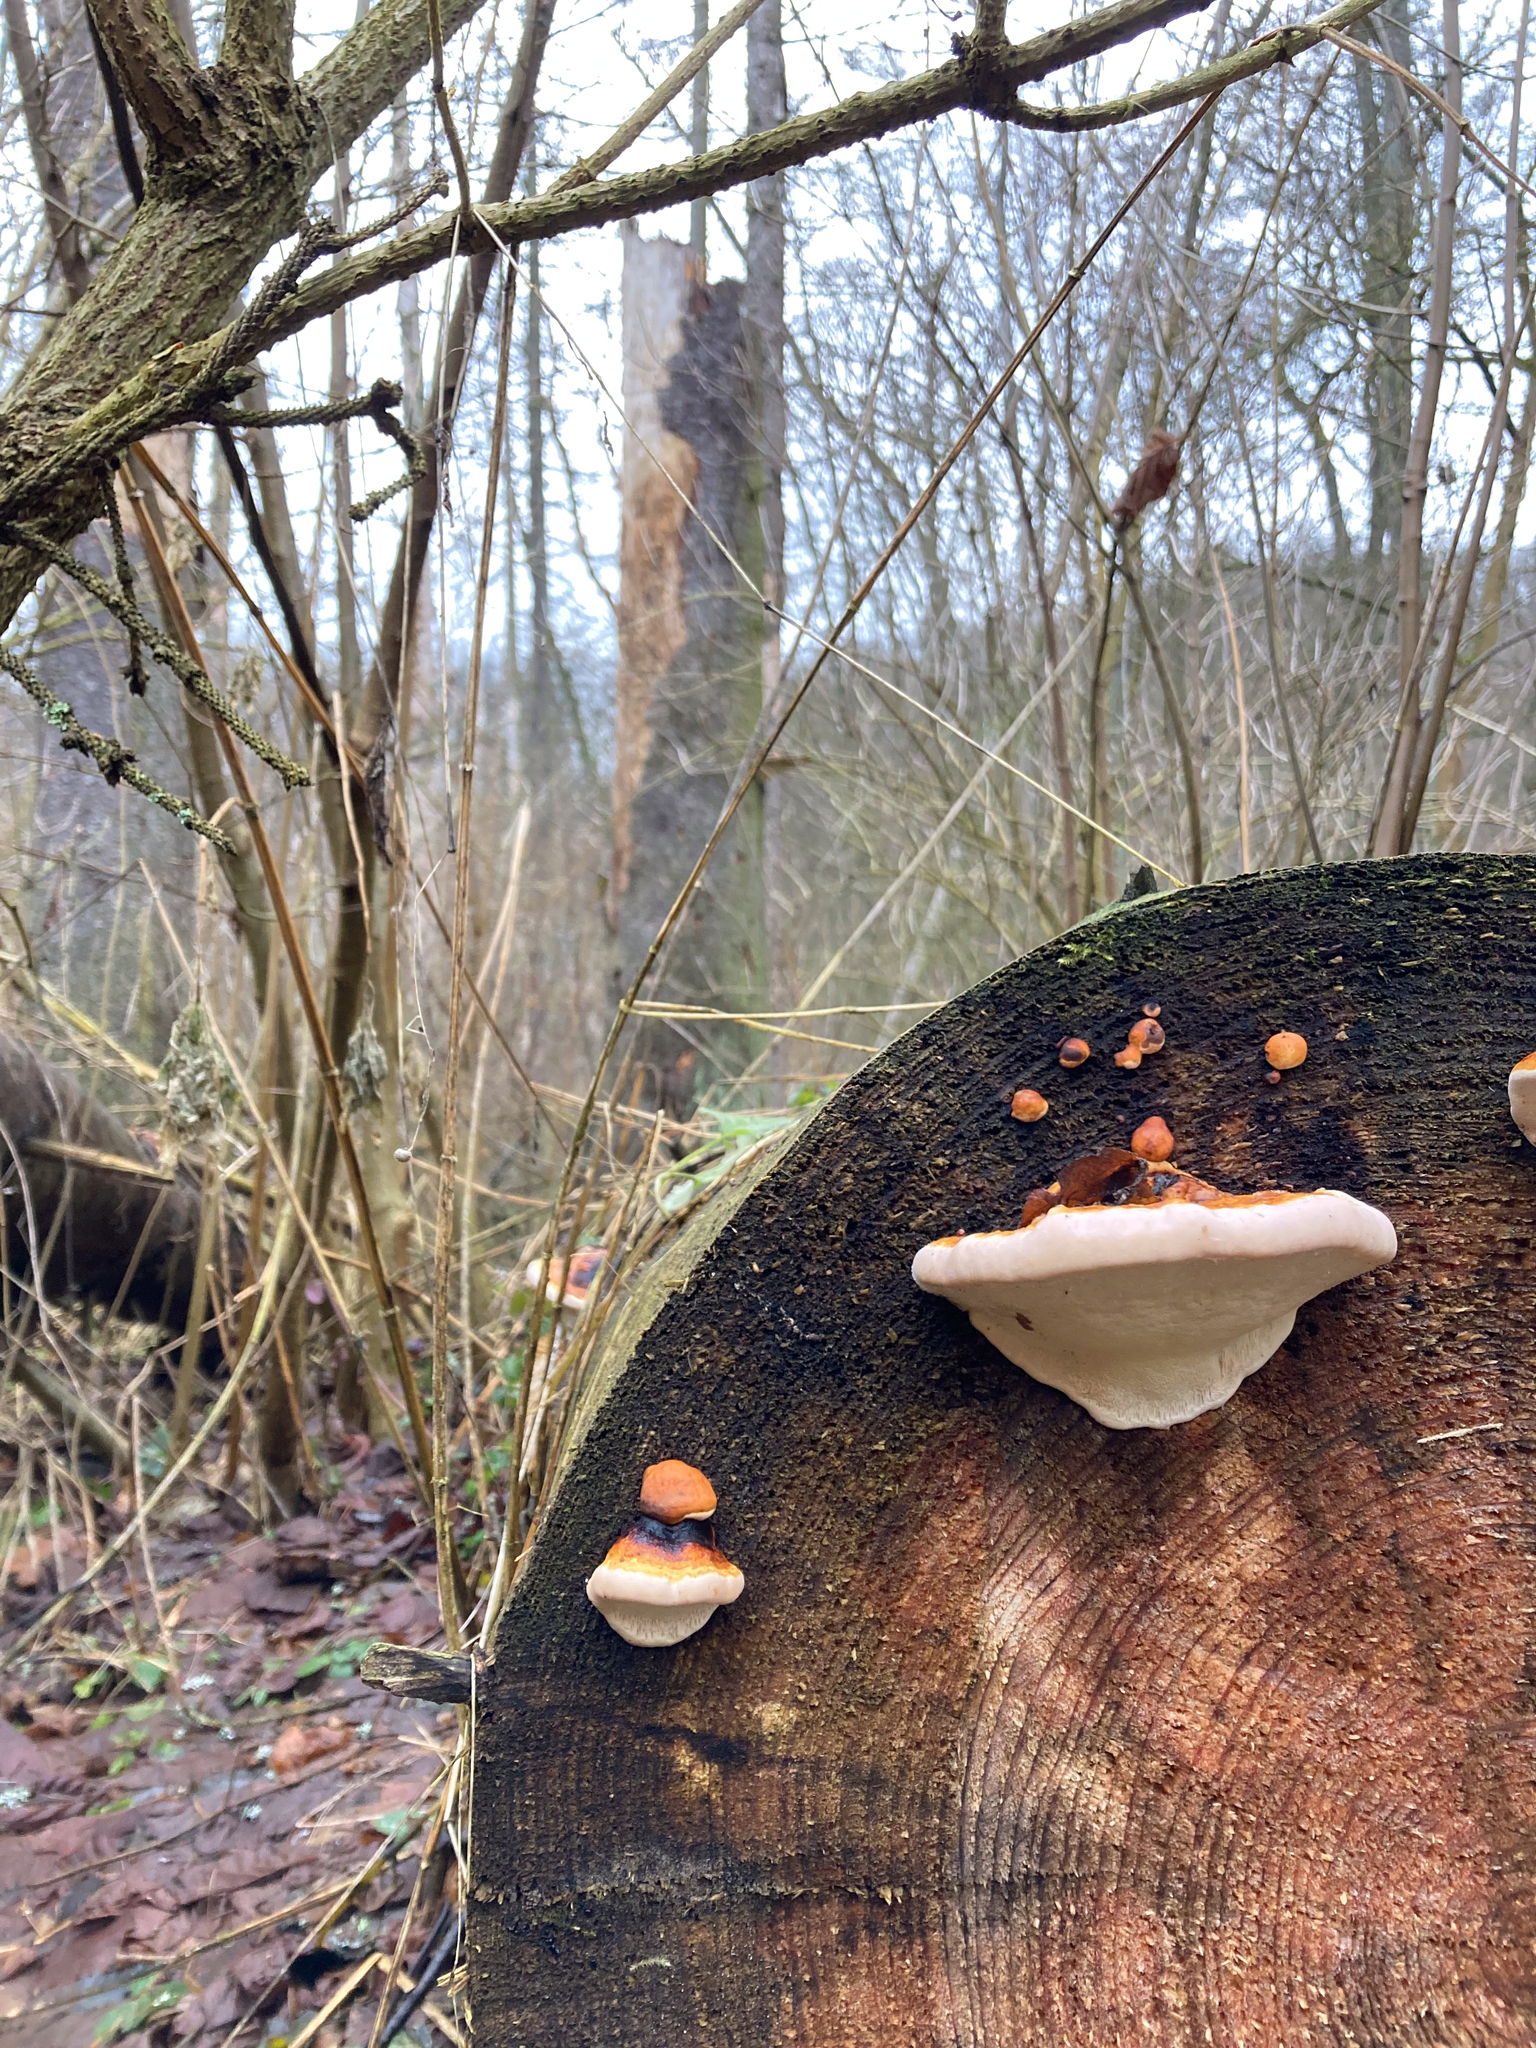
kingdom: Fungi
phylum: Basidiomycota
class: Agaricomycetes
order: Polyporales
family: Fomitopsidaceae
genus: Fomitopsis
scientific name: Fomitopsis pinicola
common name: Red-belted bracket
